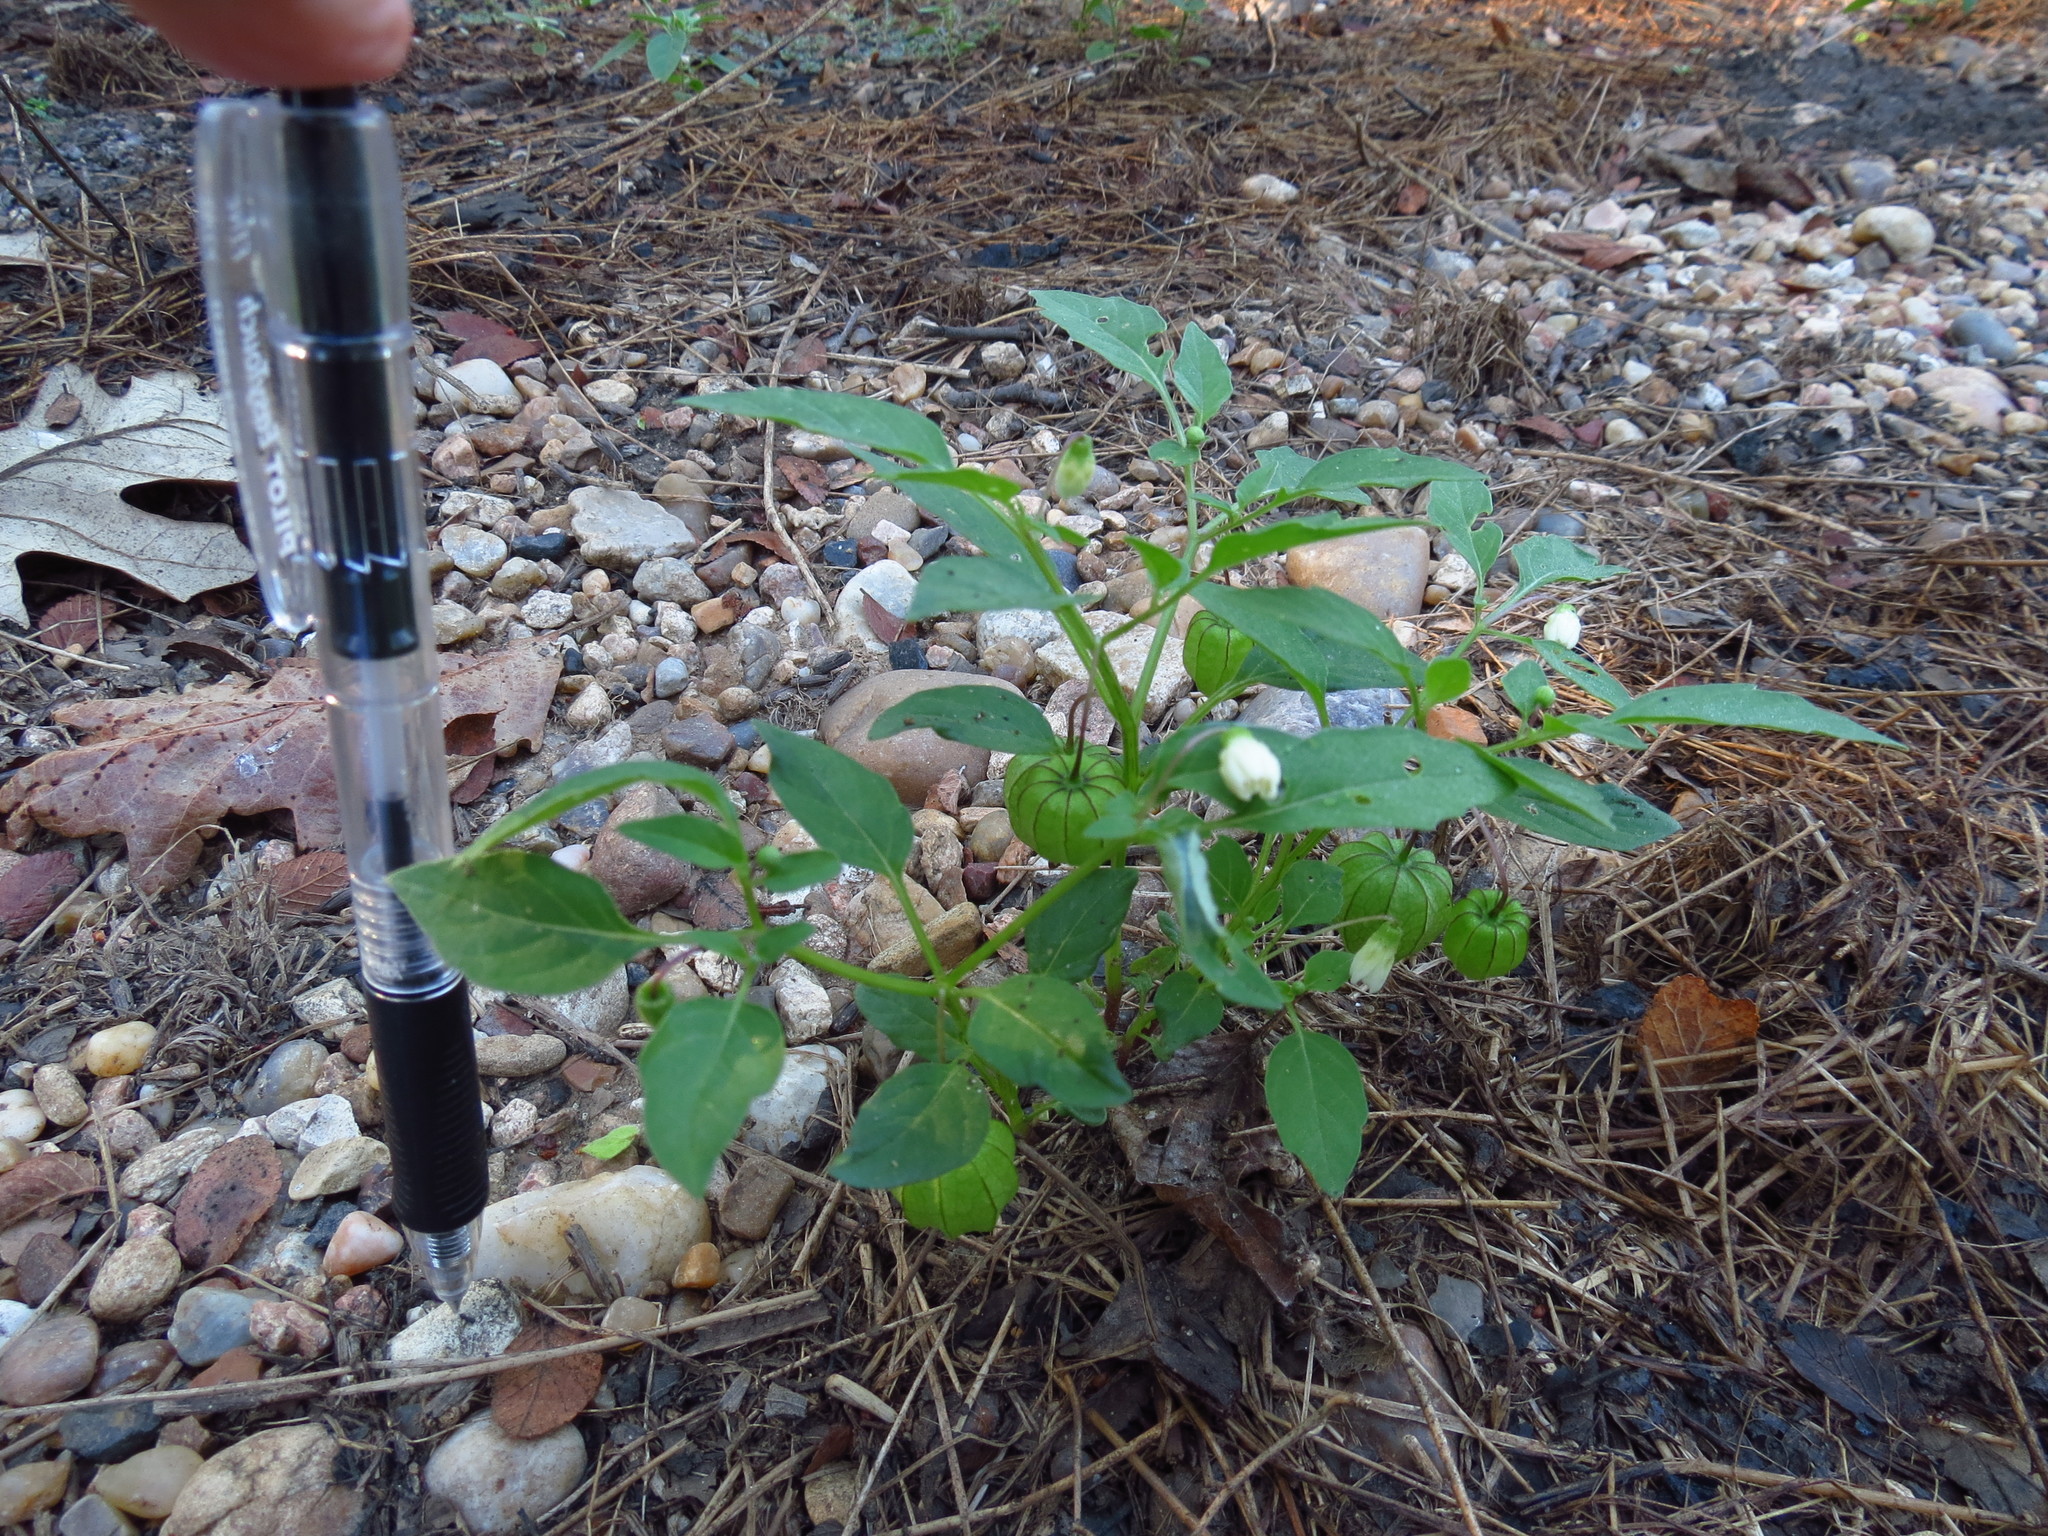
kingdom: Plantae
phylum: Tracheophyta
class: Magnoliopsida
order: Solanales
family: Solanaceae
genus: Physalis
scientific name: Physalis angulata
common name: Angular winter-cherry
